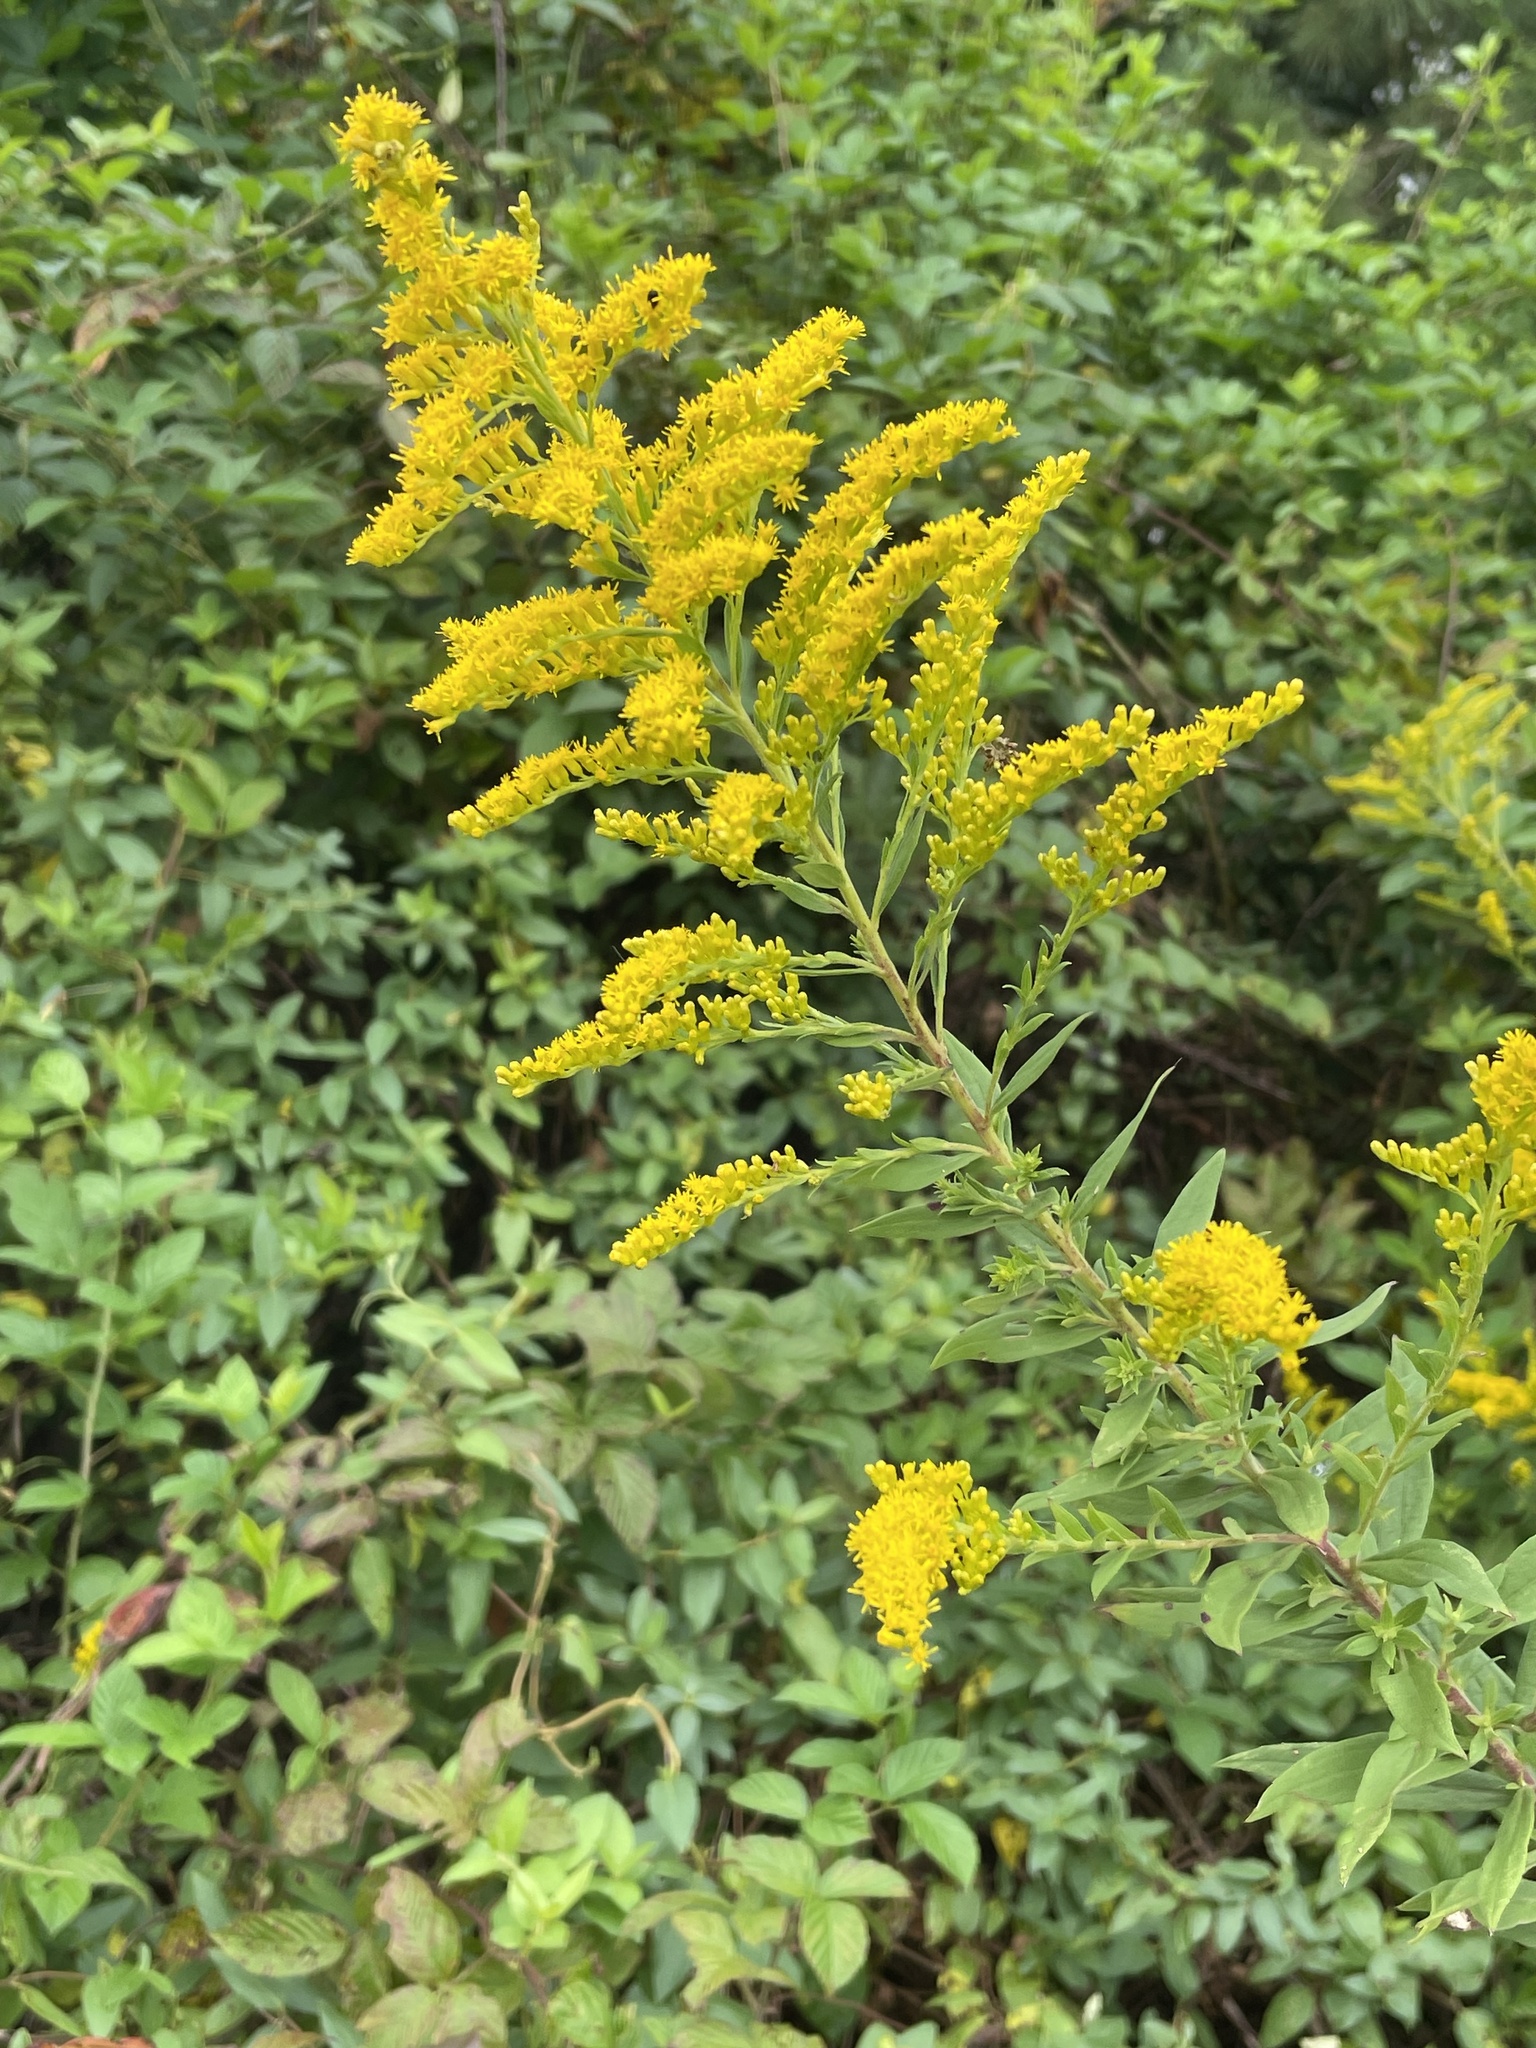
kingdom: Plantae
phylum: Tracheophyta
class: Magnoliopsida
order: Asterales
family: Asteraceae
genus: Solidago
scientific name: Solidago altissima
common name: Late goldenrod
